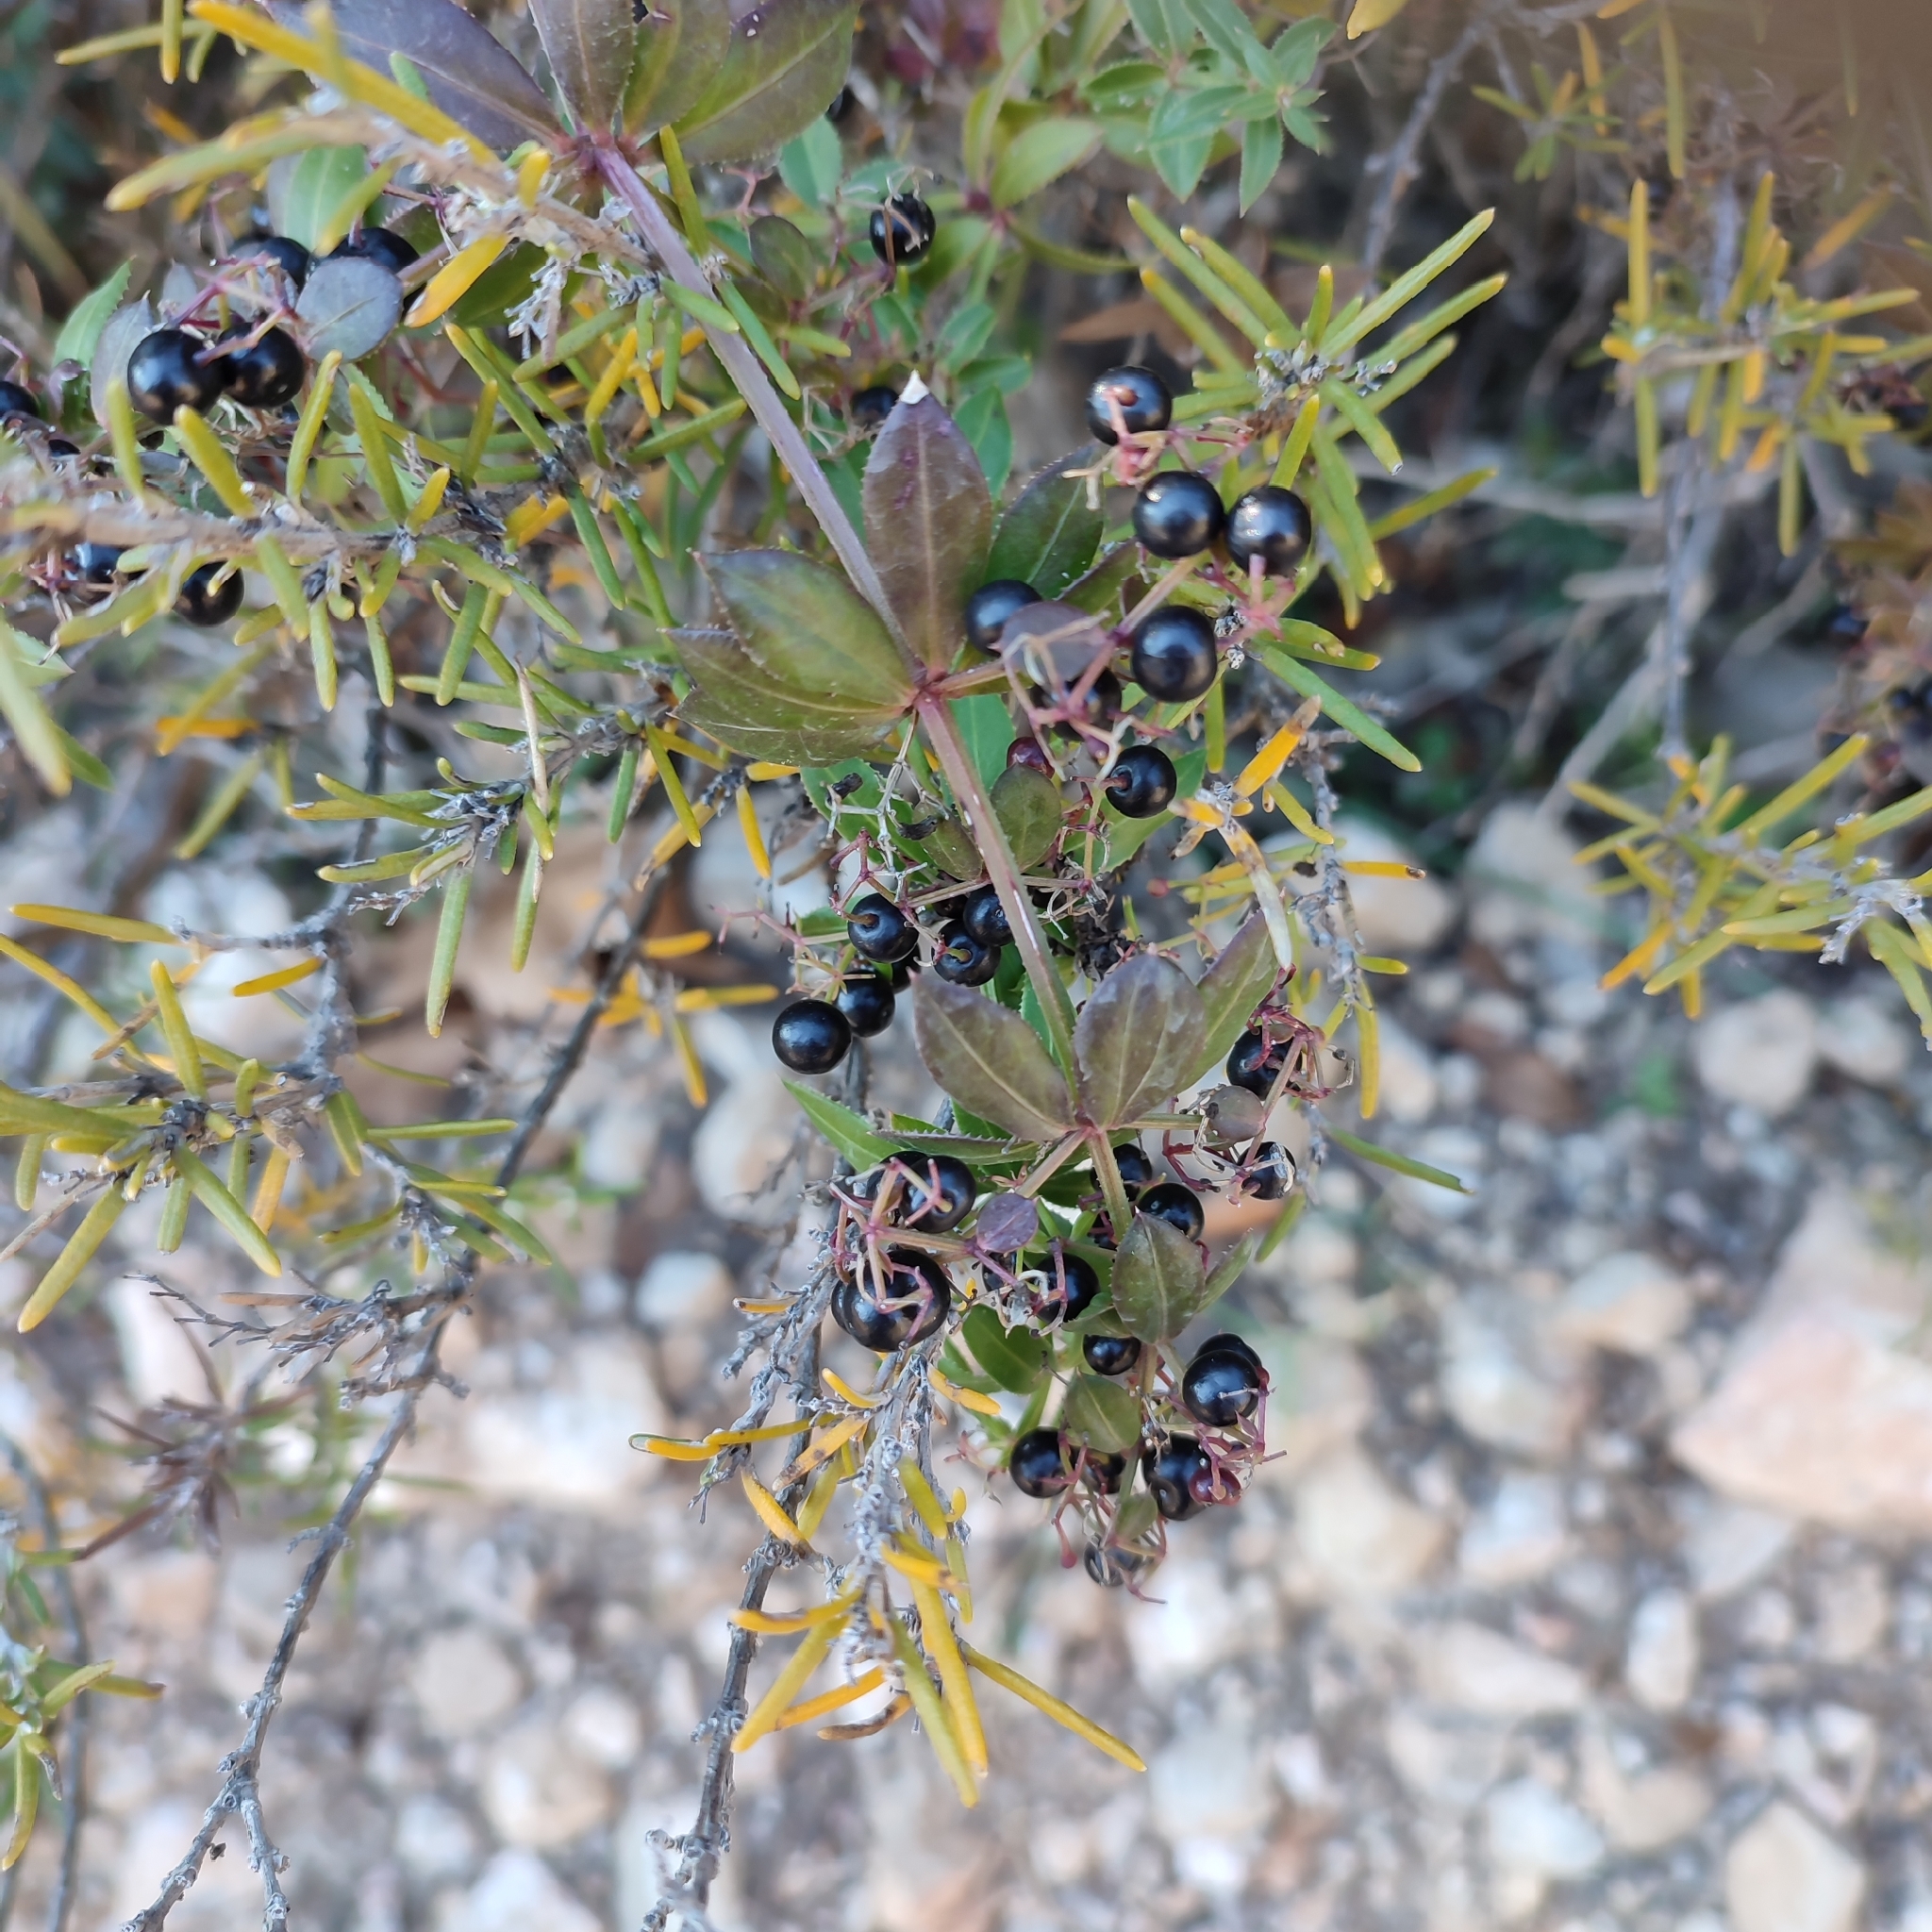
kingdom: Plantae
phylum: Tracheophyta
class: Magnoliopsida
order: Gentianales
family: Rubiaceae
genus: Rubia
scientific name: Rubia peregrina
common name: Wild madder
